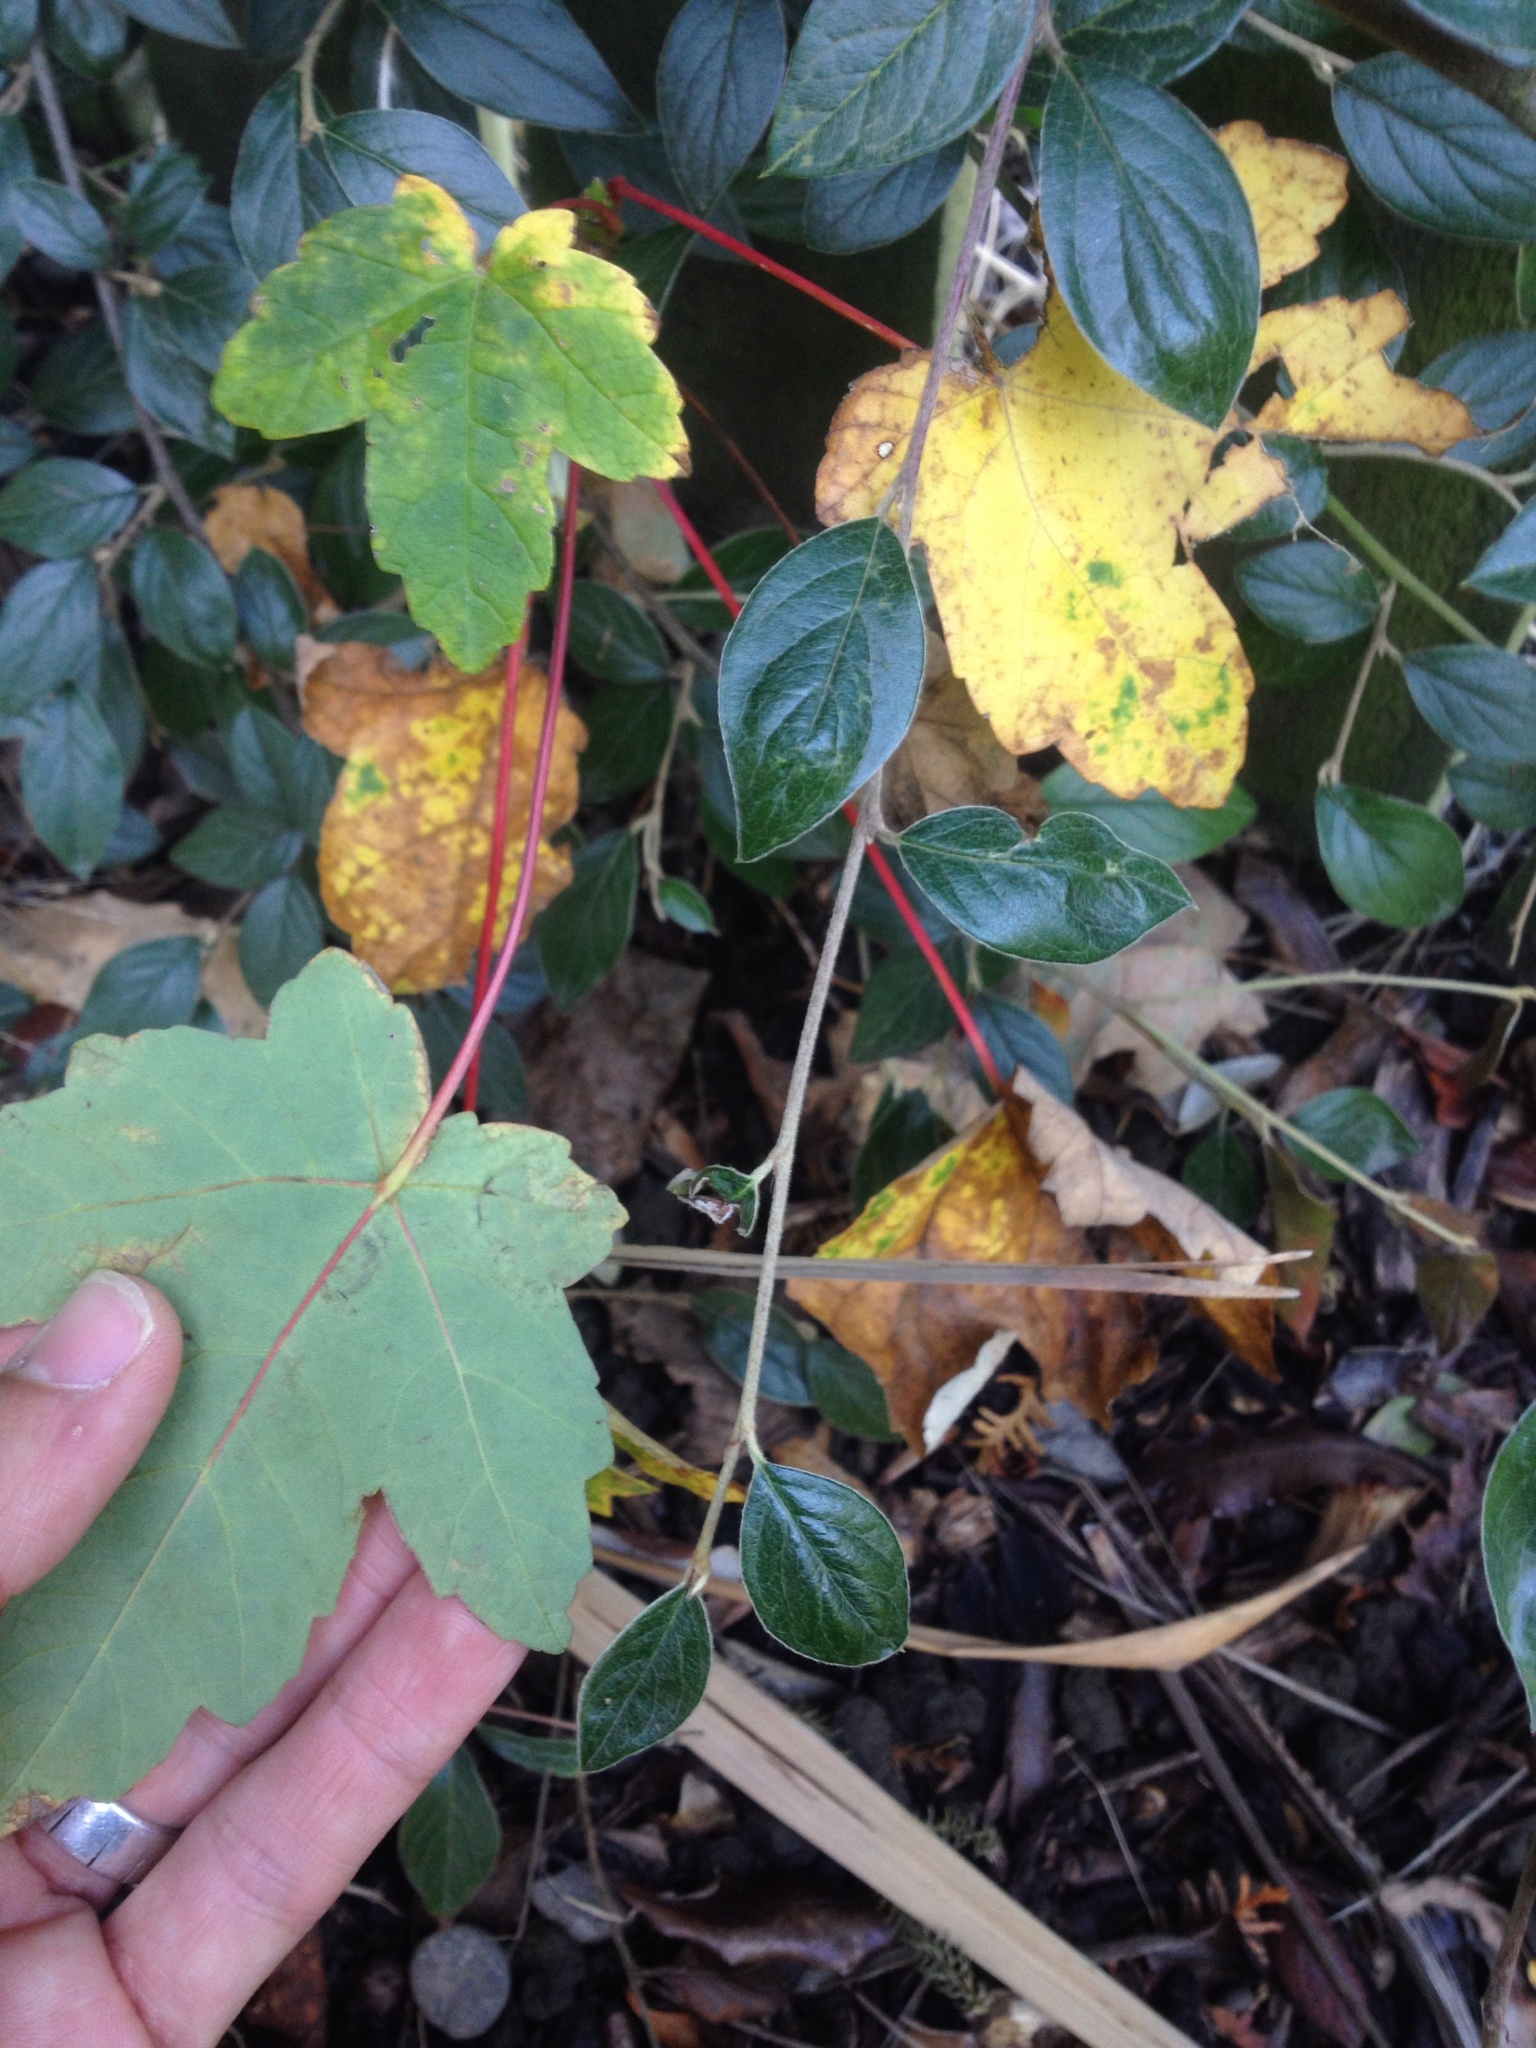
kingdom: Plantae
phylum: Tracheophyta
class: Magnoliopsida
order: Sapindales
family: Sapindaceae
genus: Acer
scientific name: Acer pseudoplatanus
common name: Sycamore
